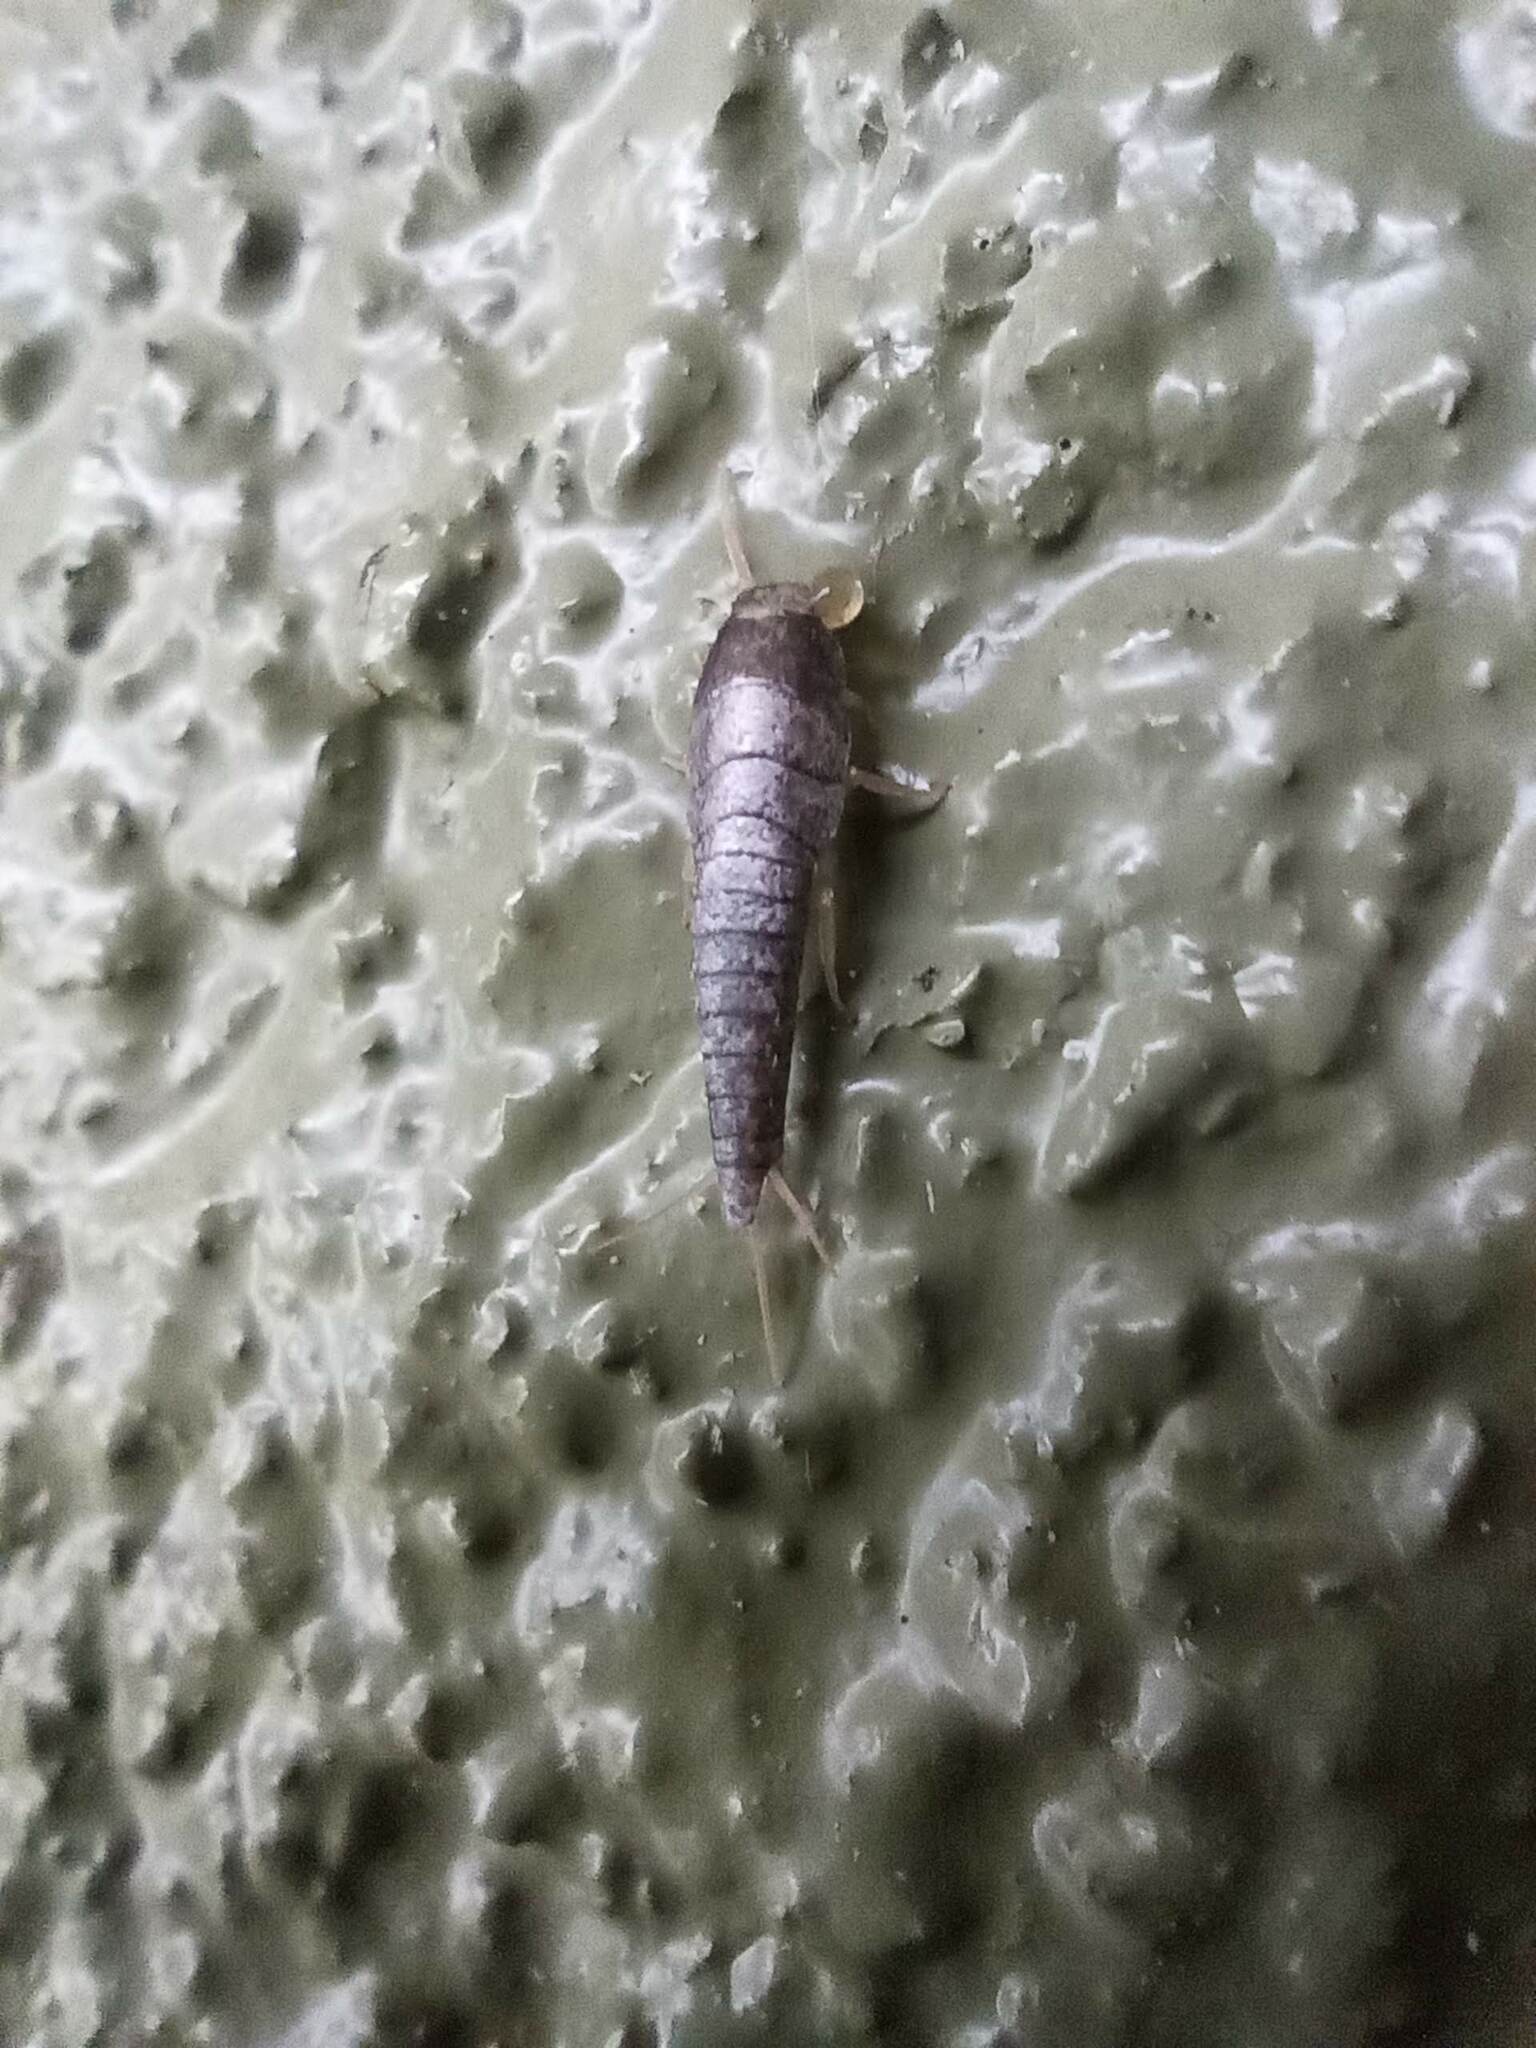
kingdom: Animalia
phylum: Arthropoda
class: Insecta
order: Zygentoma
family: Lepismatidae
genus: Lepisma
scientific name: Lepisma saccharinum
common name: Silverfish
